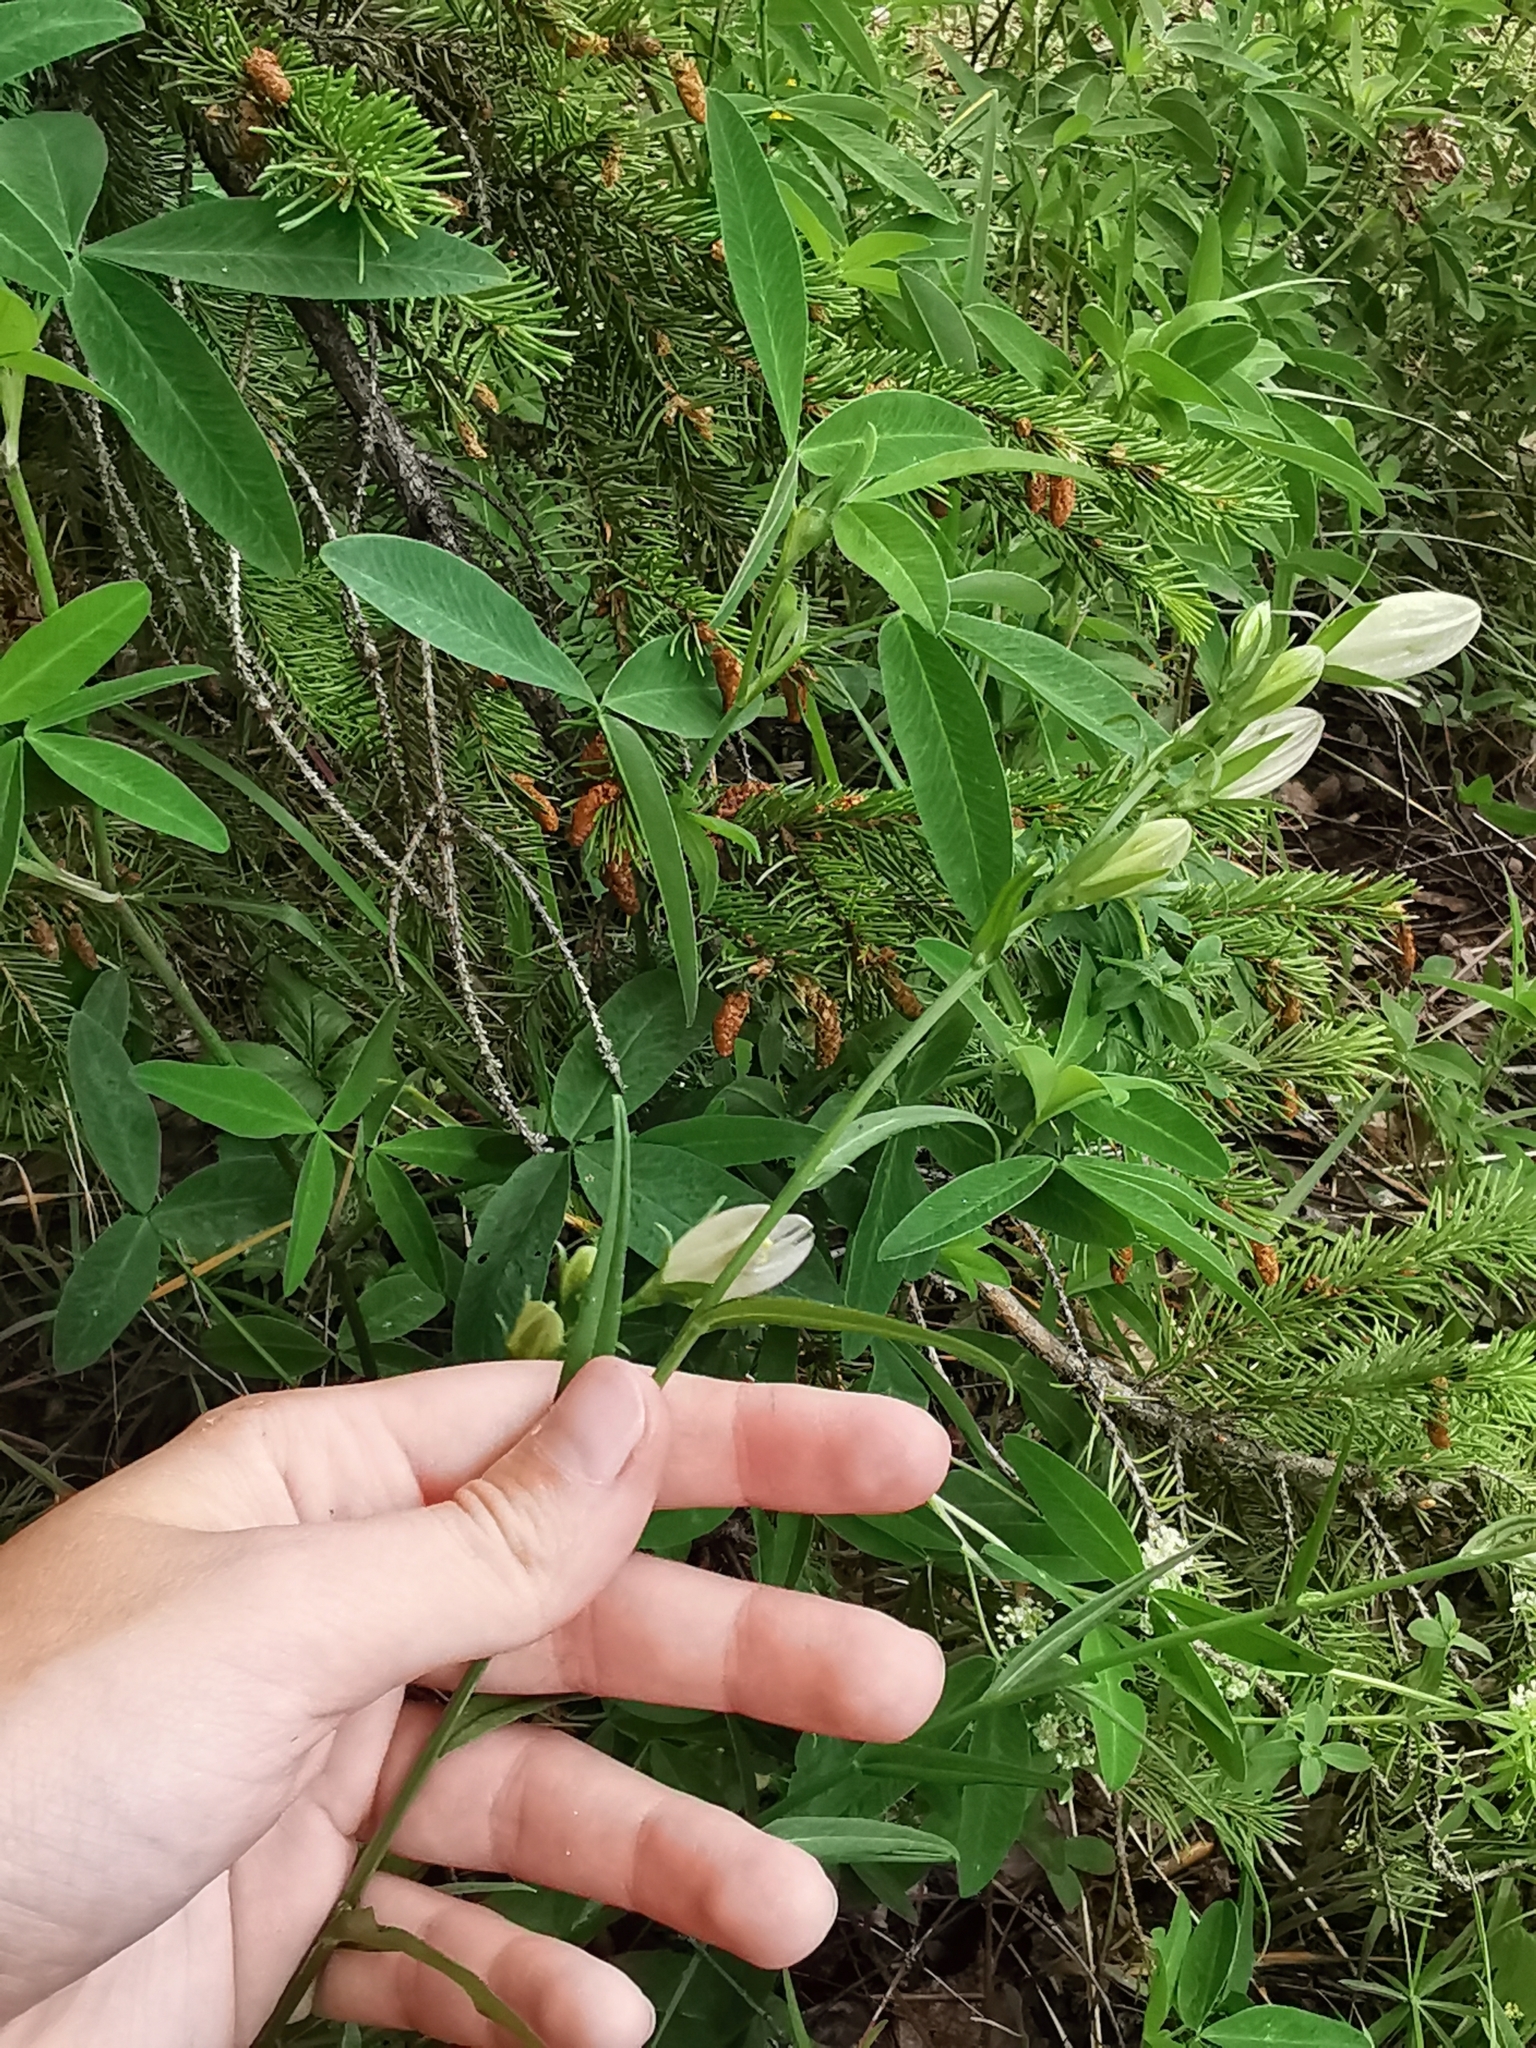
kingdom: Plantae
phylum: Tracheophyta
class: Magnoliopsida
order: Asterales
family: Campanulaceae
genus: Campanula
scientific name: Campanula persicifolia
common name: Peach-leaved bellflower
